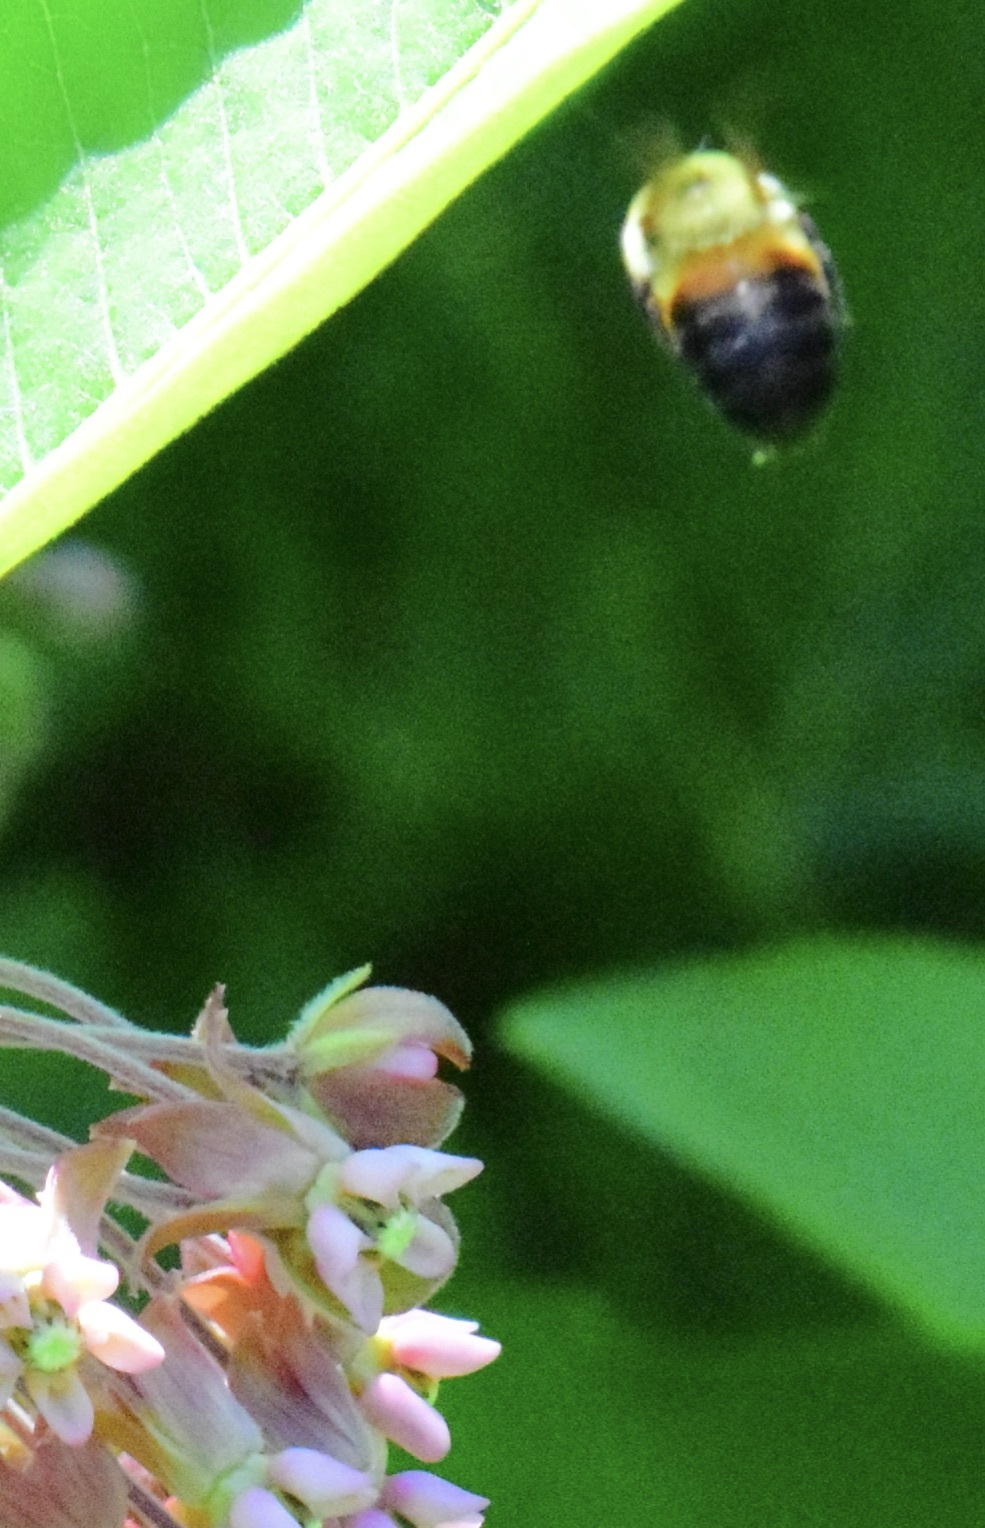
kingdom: Animalia
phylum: Arthropoda
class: Insecta
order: Hymenoptera
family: Apidae
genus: Bombus
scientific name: Bombus griseocollis
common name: Brown-belted bumble bee
